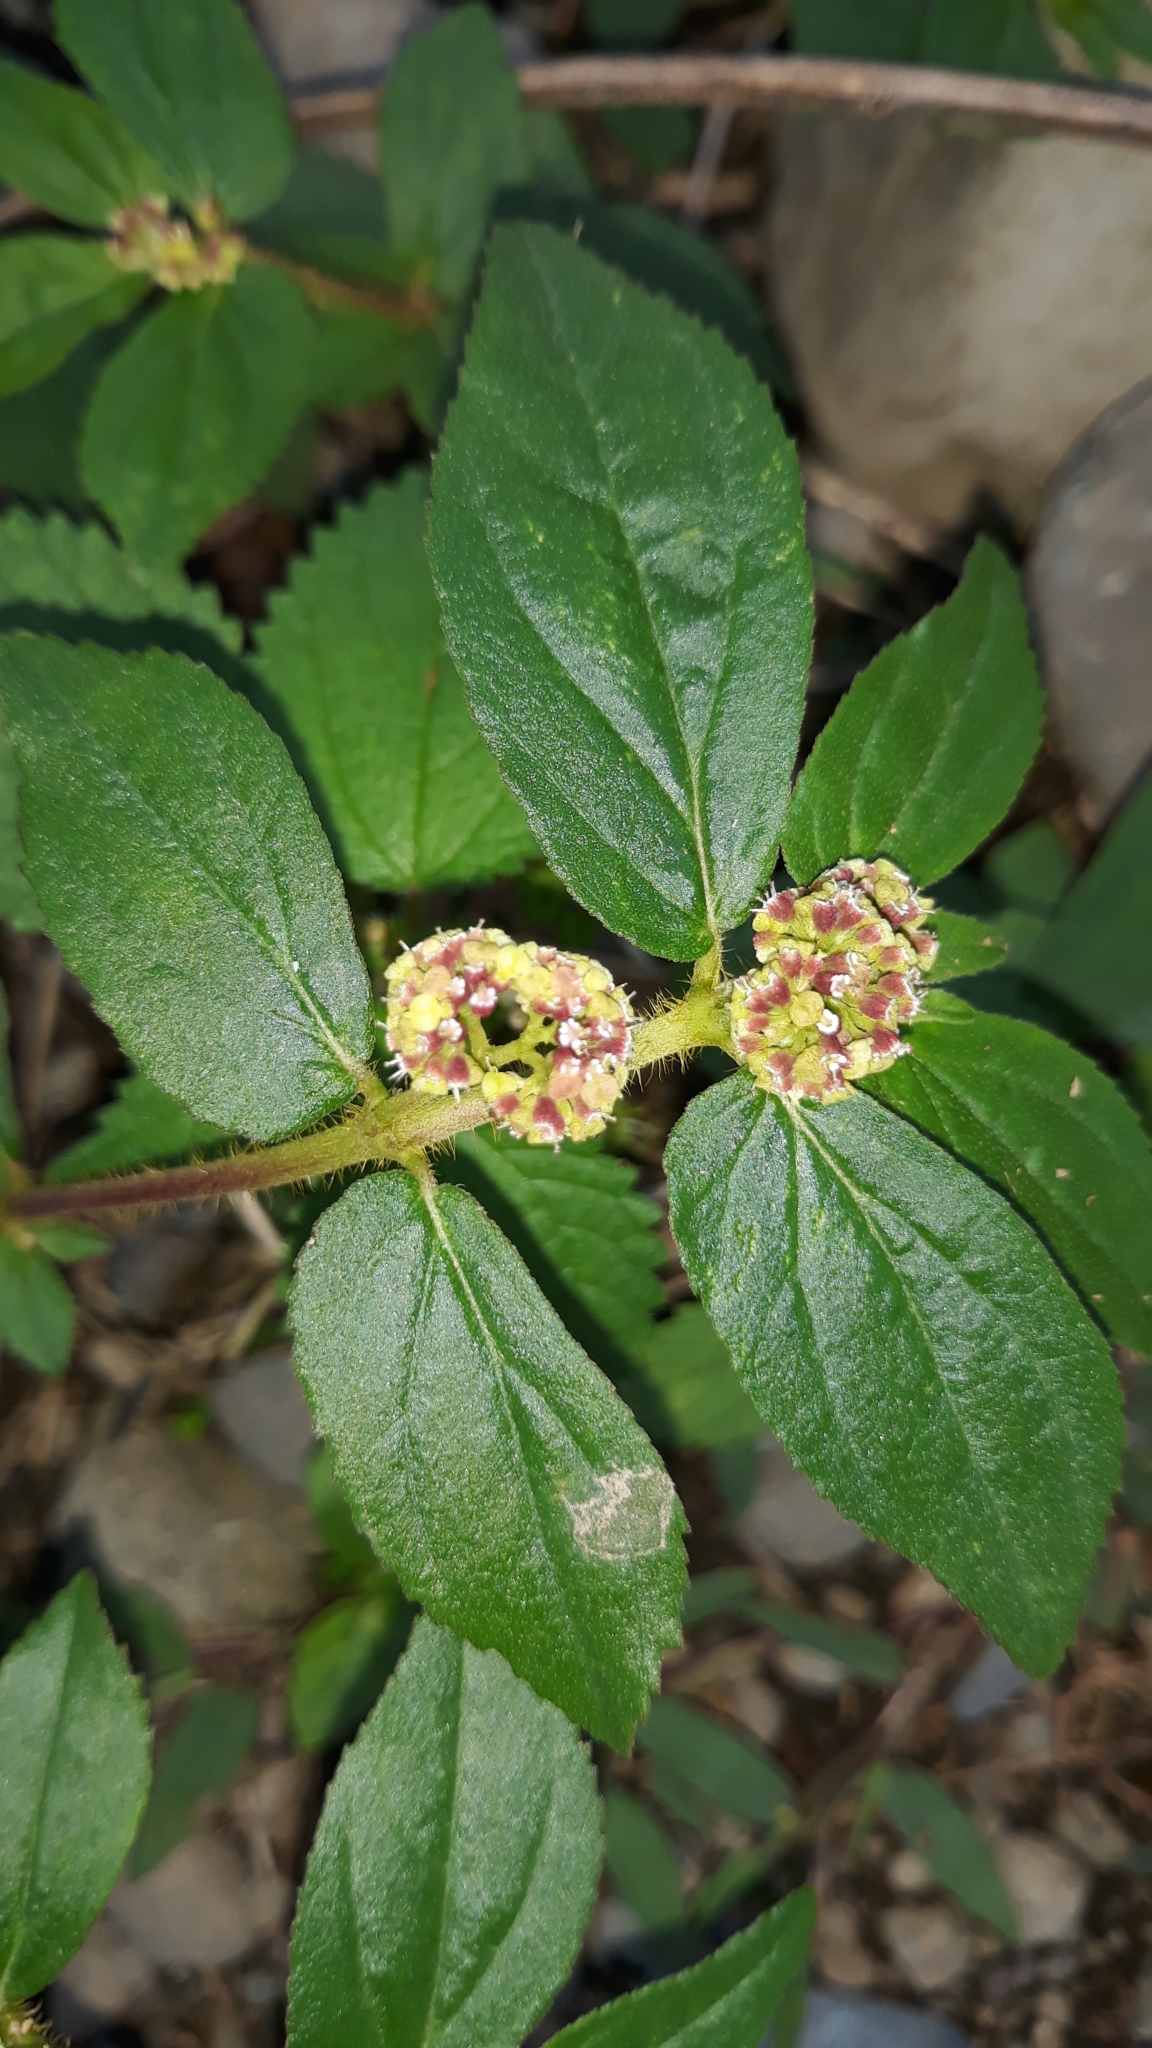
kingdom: Plantae
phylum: Tracheophyta
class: Magnoliopsida
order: Malpighiales
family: Euphorbiaceae
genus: Euphorbia
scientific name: Euphorbia hirta
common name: Pillpod sandmat
